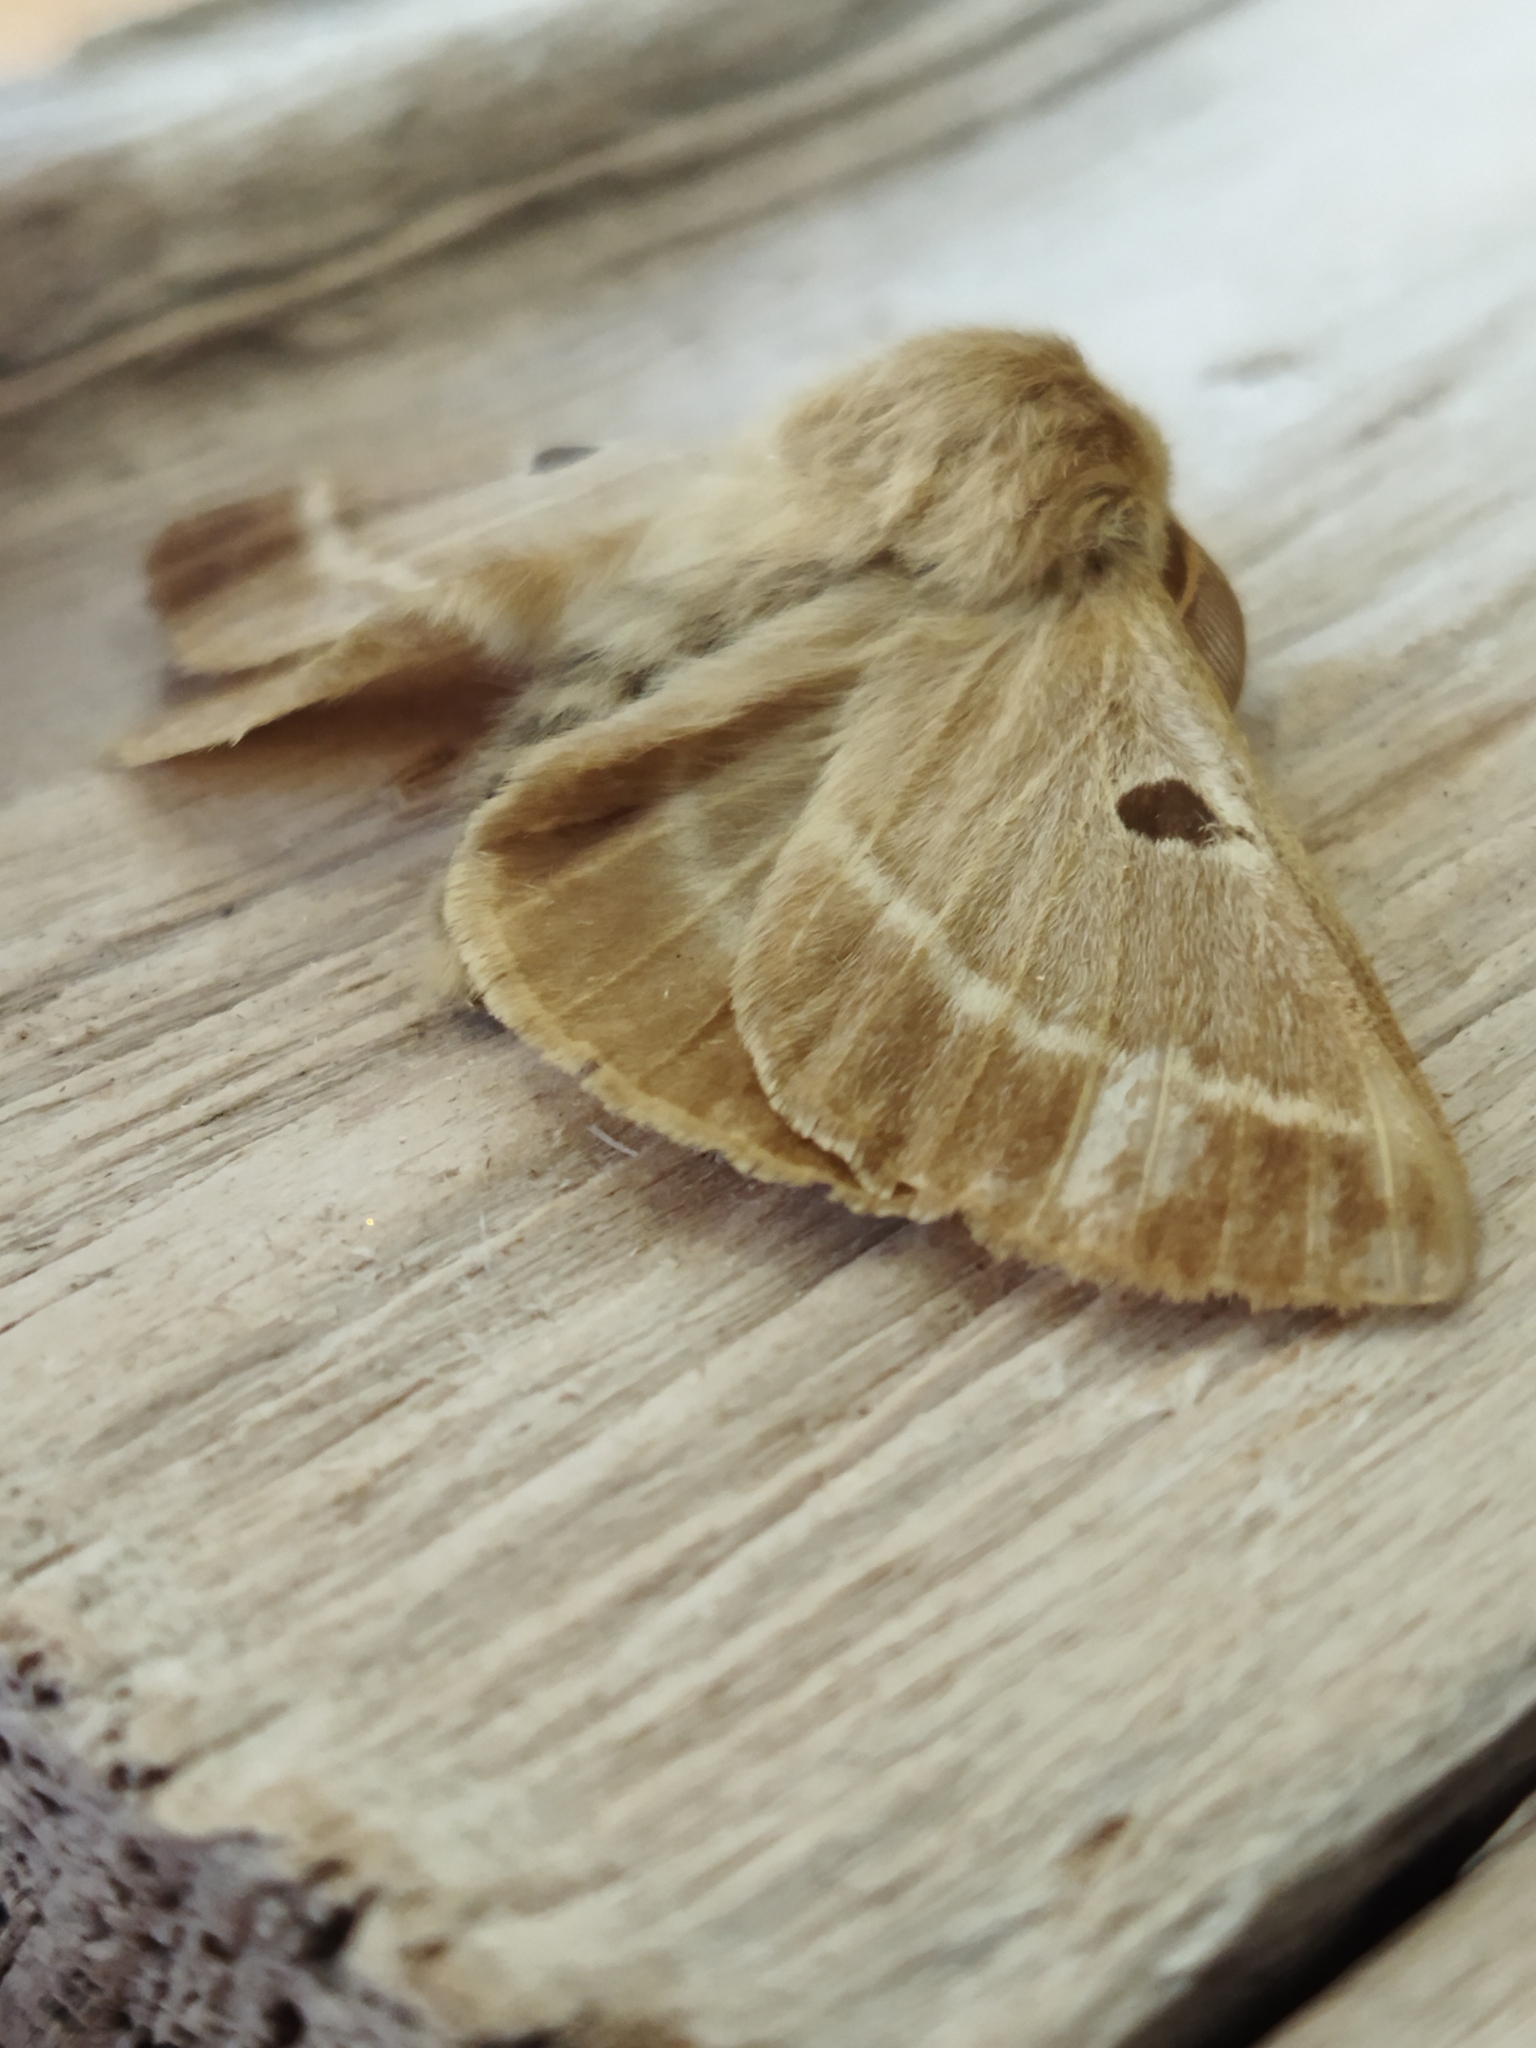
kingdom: Animalia
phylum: Arthropoda
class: Insecta
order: Lepidoptera
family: Brahmaeidae
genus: Lemonia
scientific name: Lemonia balcanica
